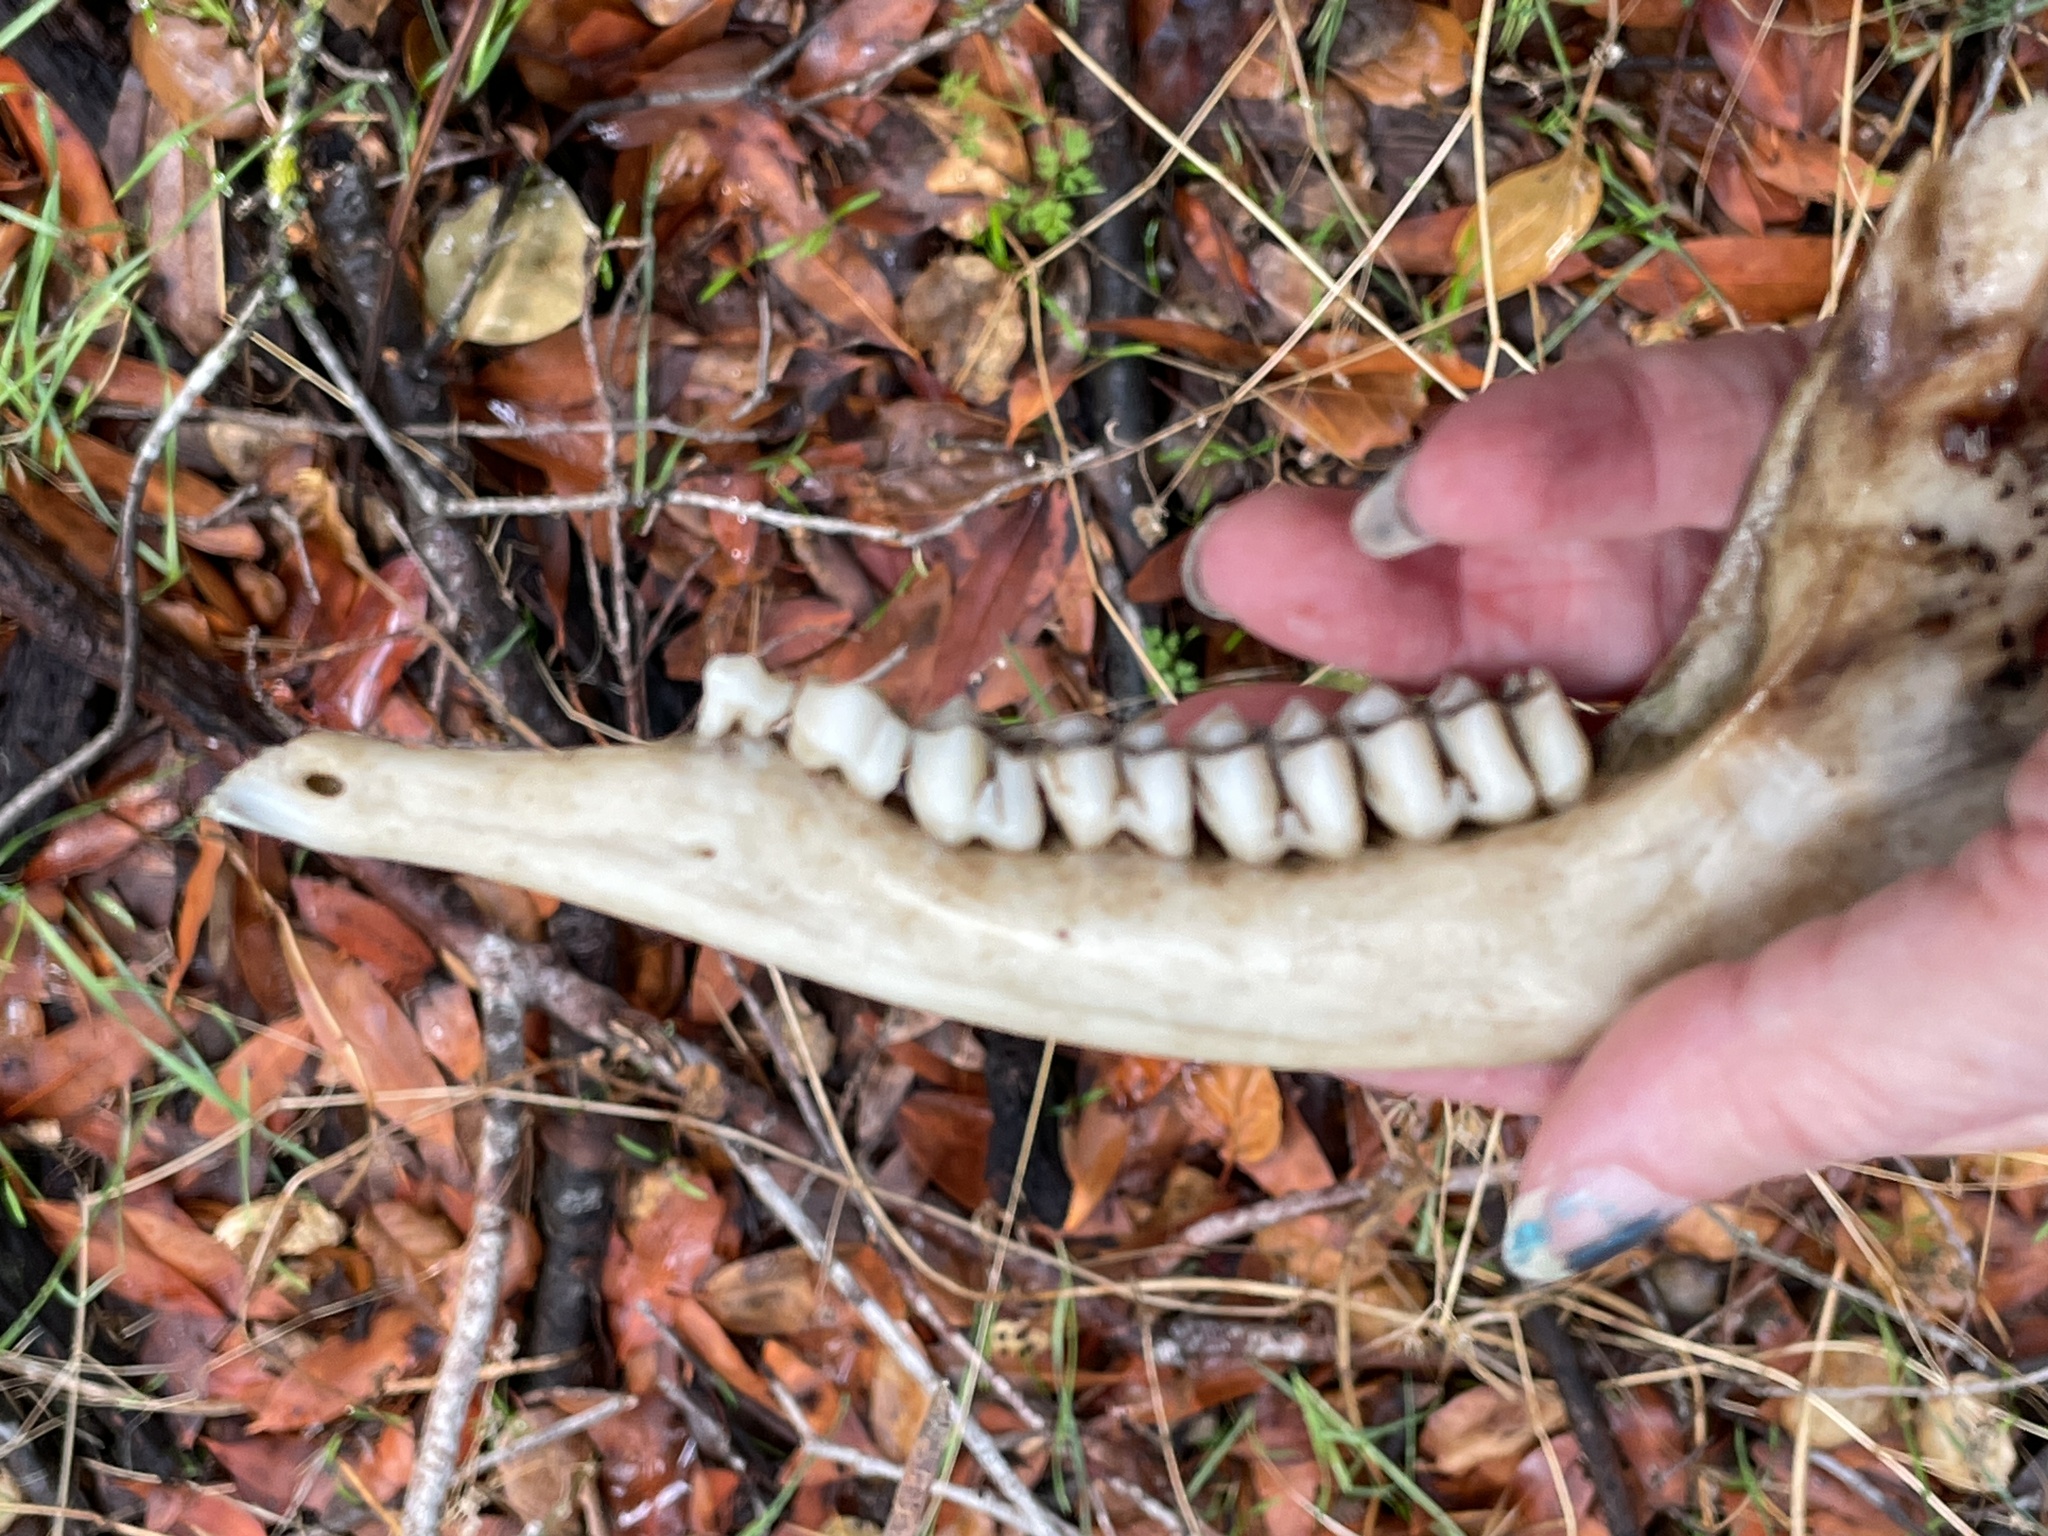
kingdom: Animalia
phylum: Chordata
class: Mammalia
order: Artiodactyla
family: Cervidae
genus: Odocoileus
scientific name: Odocoileus hemionus
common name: Mule deer
